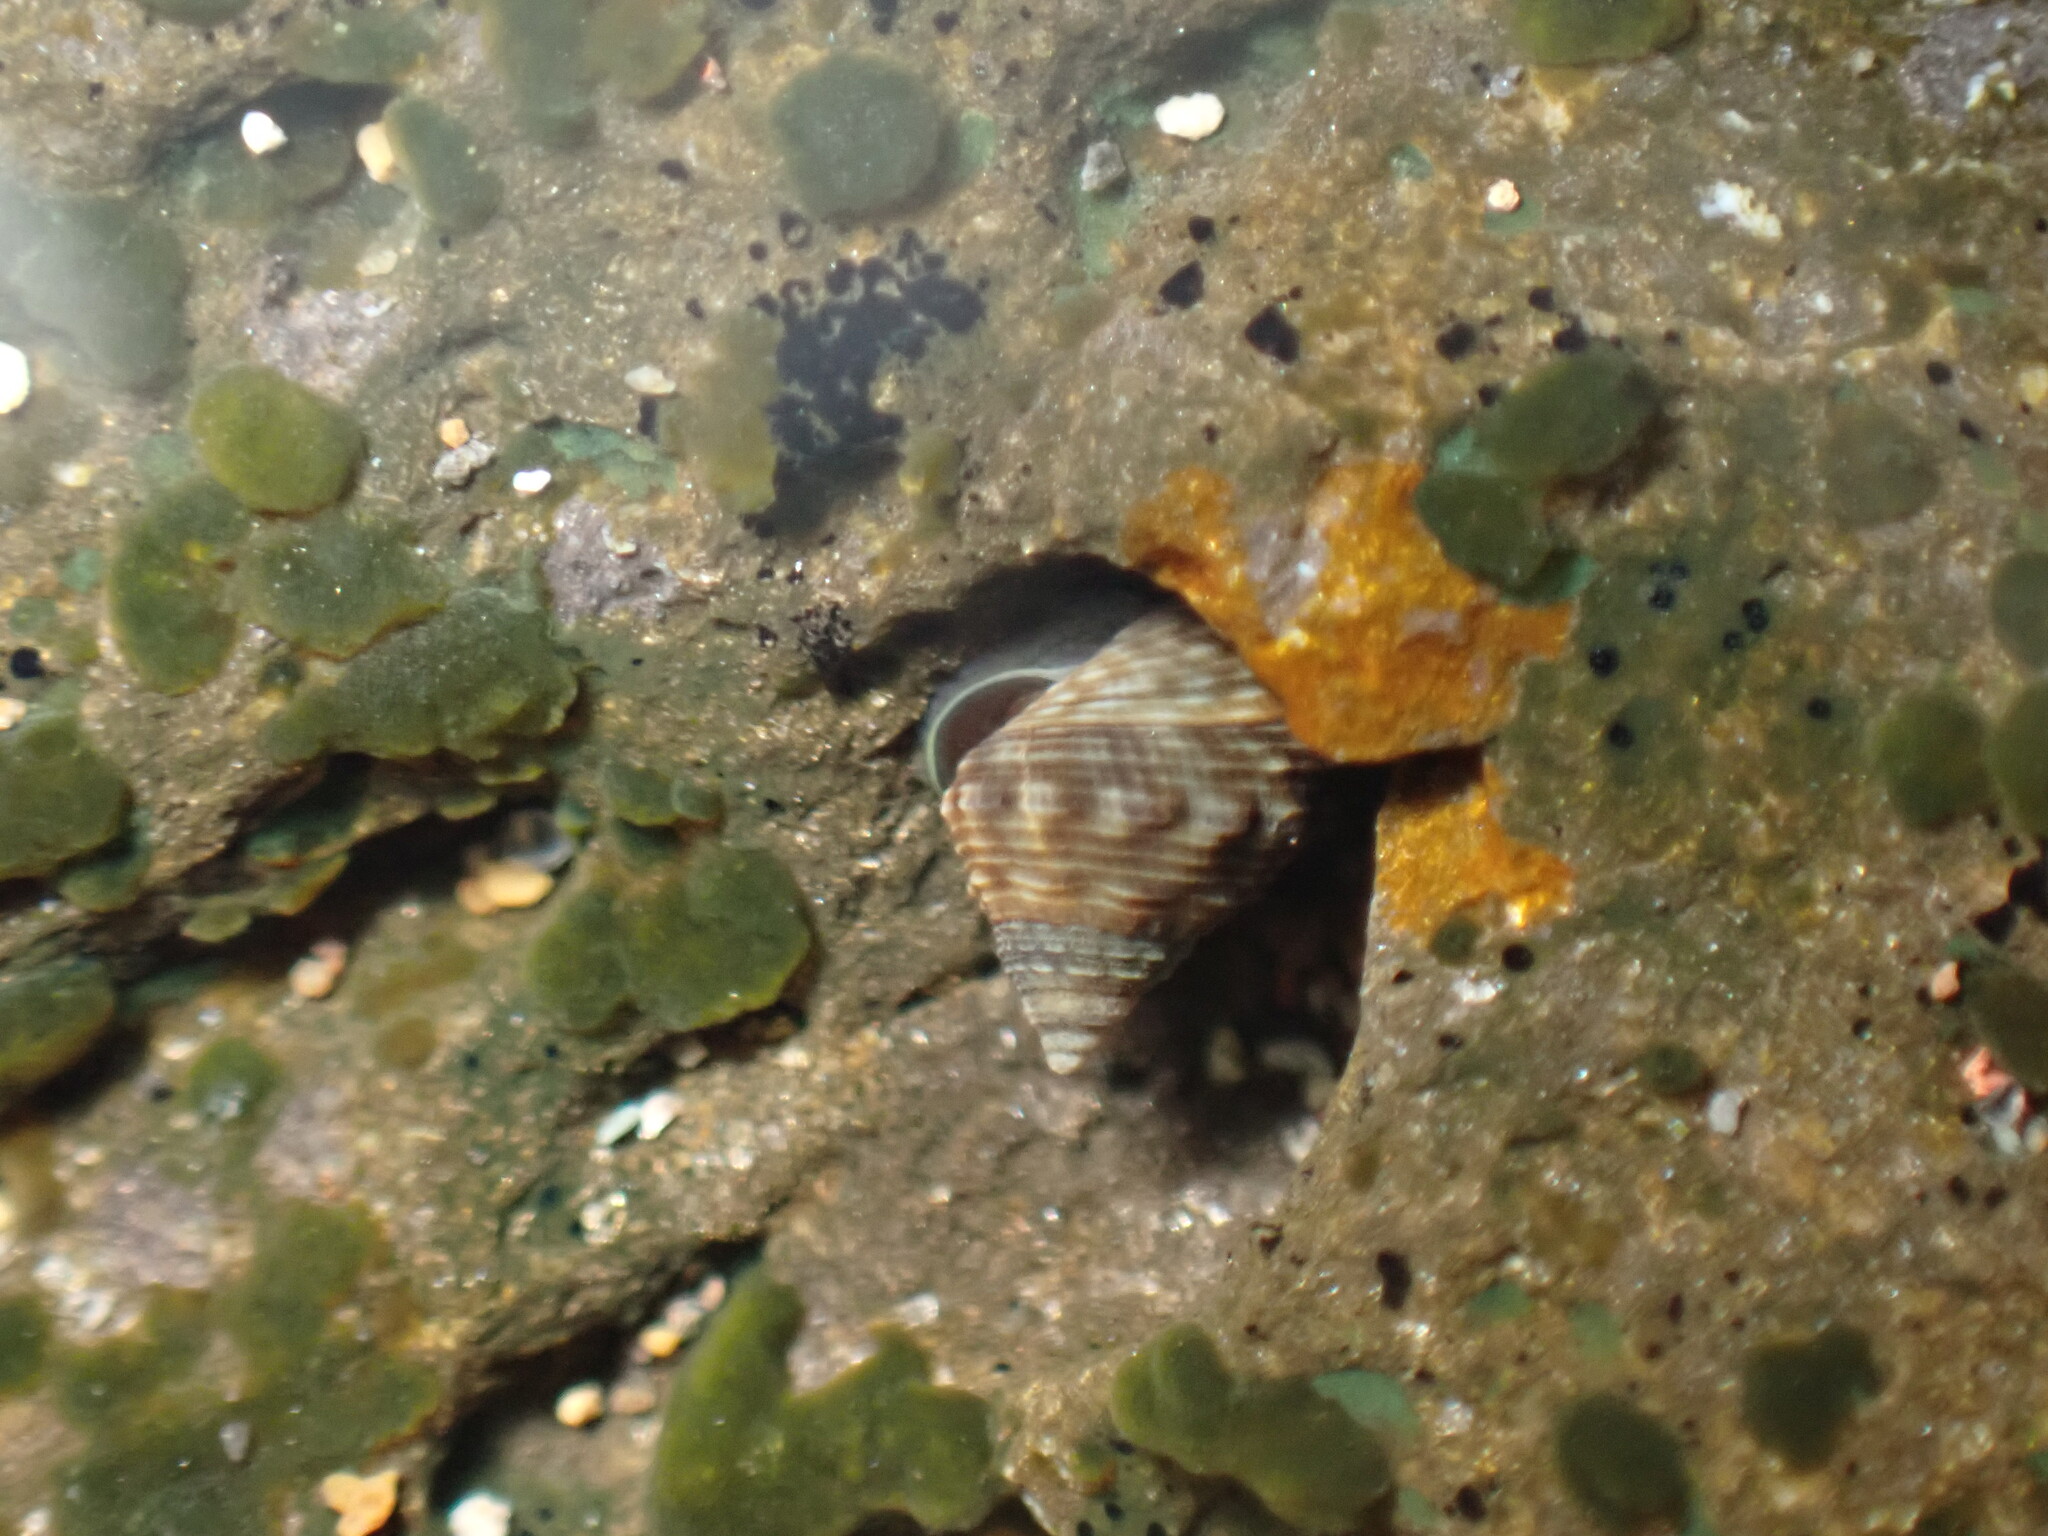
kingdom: Animalia
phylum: Mollusca
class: Gastropoda
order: Neogastropoda
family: Muricidae
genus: Stramonita
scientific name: Stramonita haemastoma
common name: Florida dog winkle
